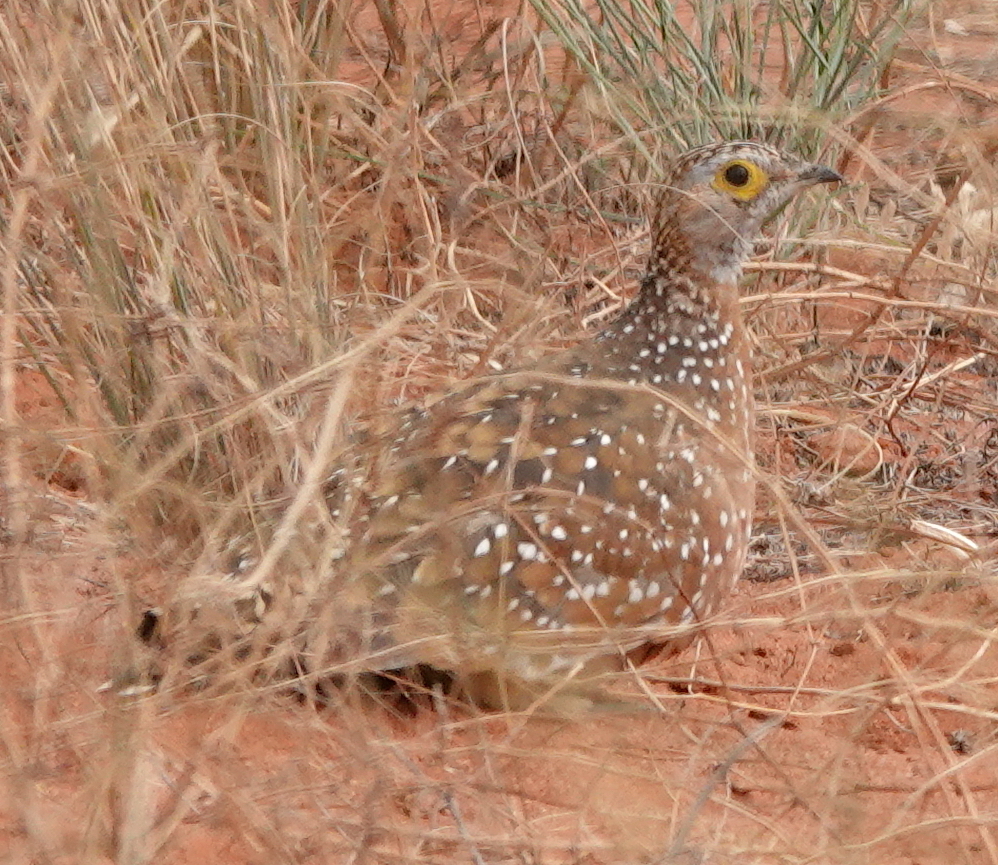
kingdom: Animalia
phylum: Chordata
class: Aves
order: Pteroclidiformes
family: Pteroclididae
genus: Pterocles
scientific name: Pterocles burchelli
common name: Burchell's sandgrouse
